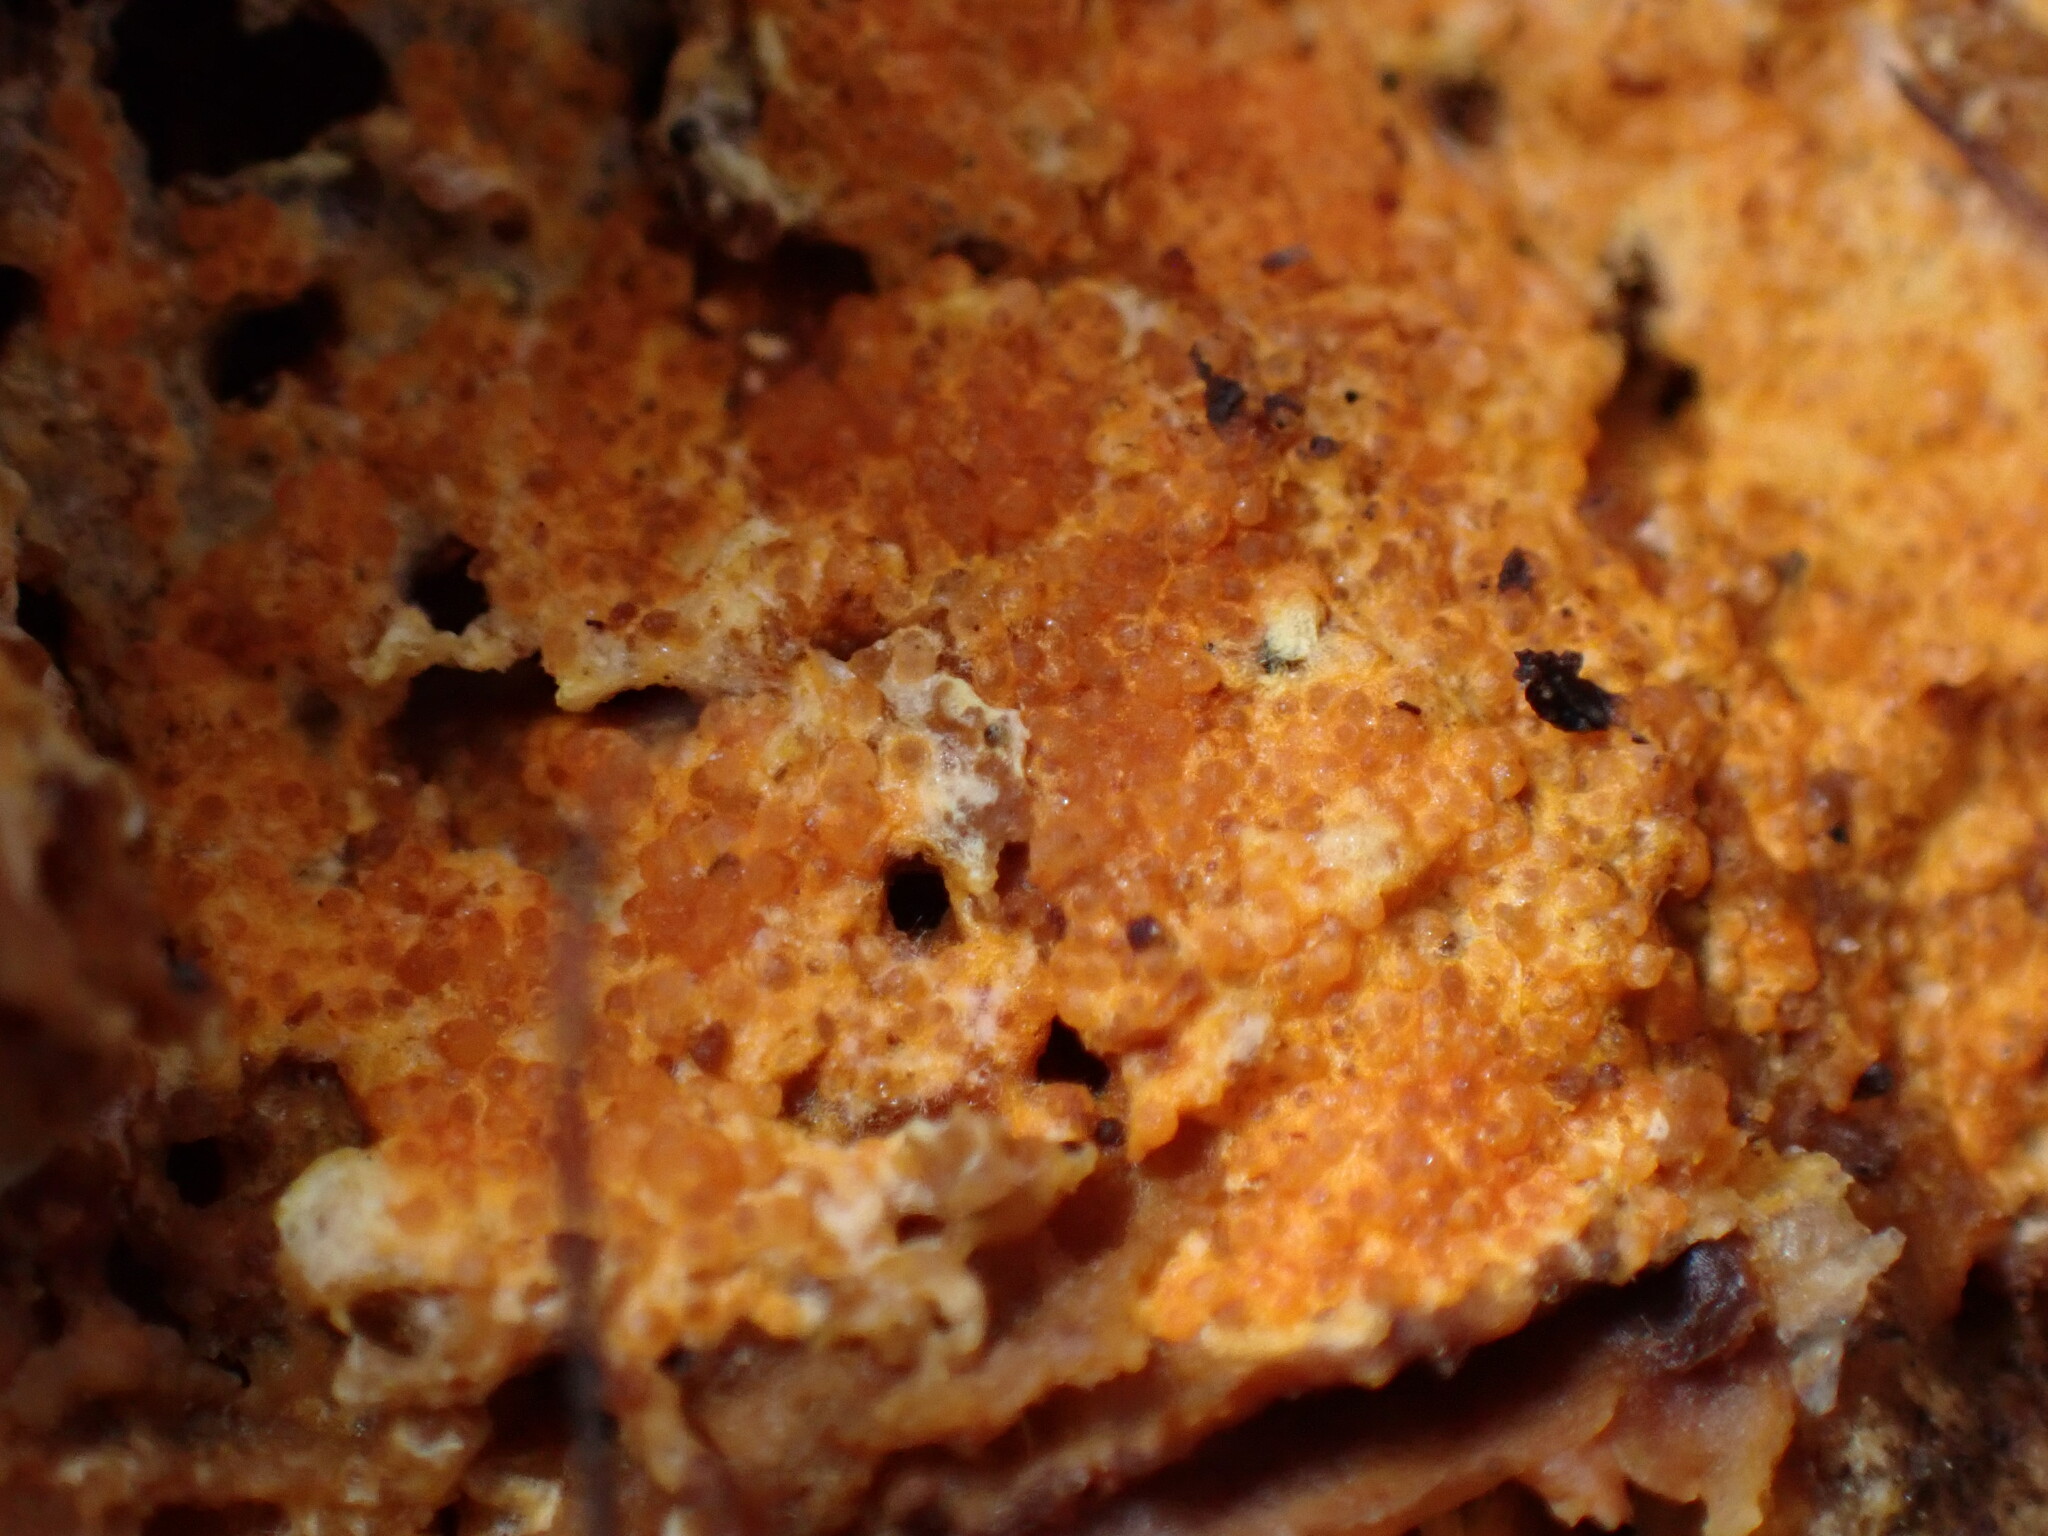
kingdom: Fungi
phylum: Ascomycota
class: Sordariomycetes
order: Hypocreales
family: Hypocreaceae
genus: Hypomyces
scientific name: Hypomyces aurantius
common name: Orange polypore mould
